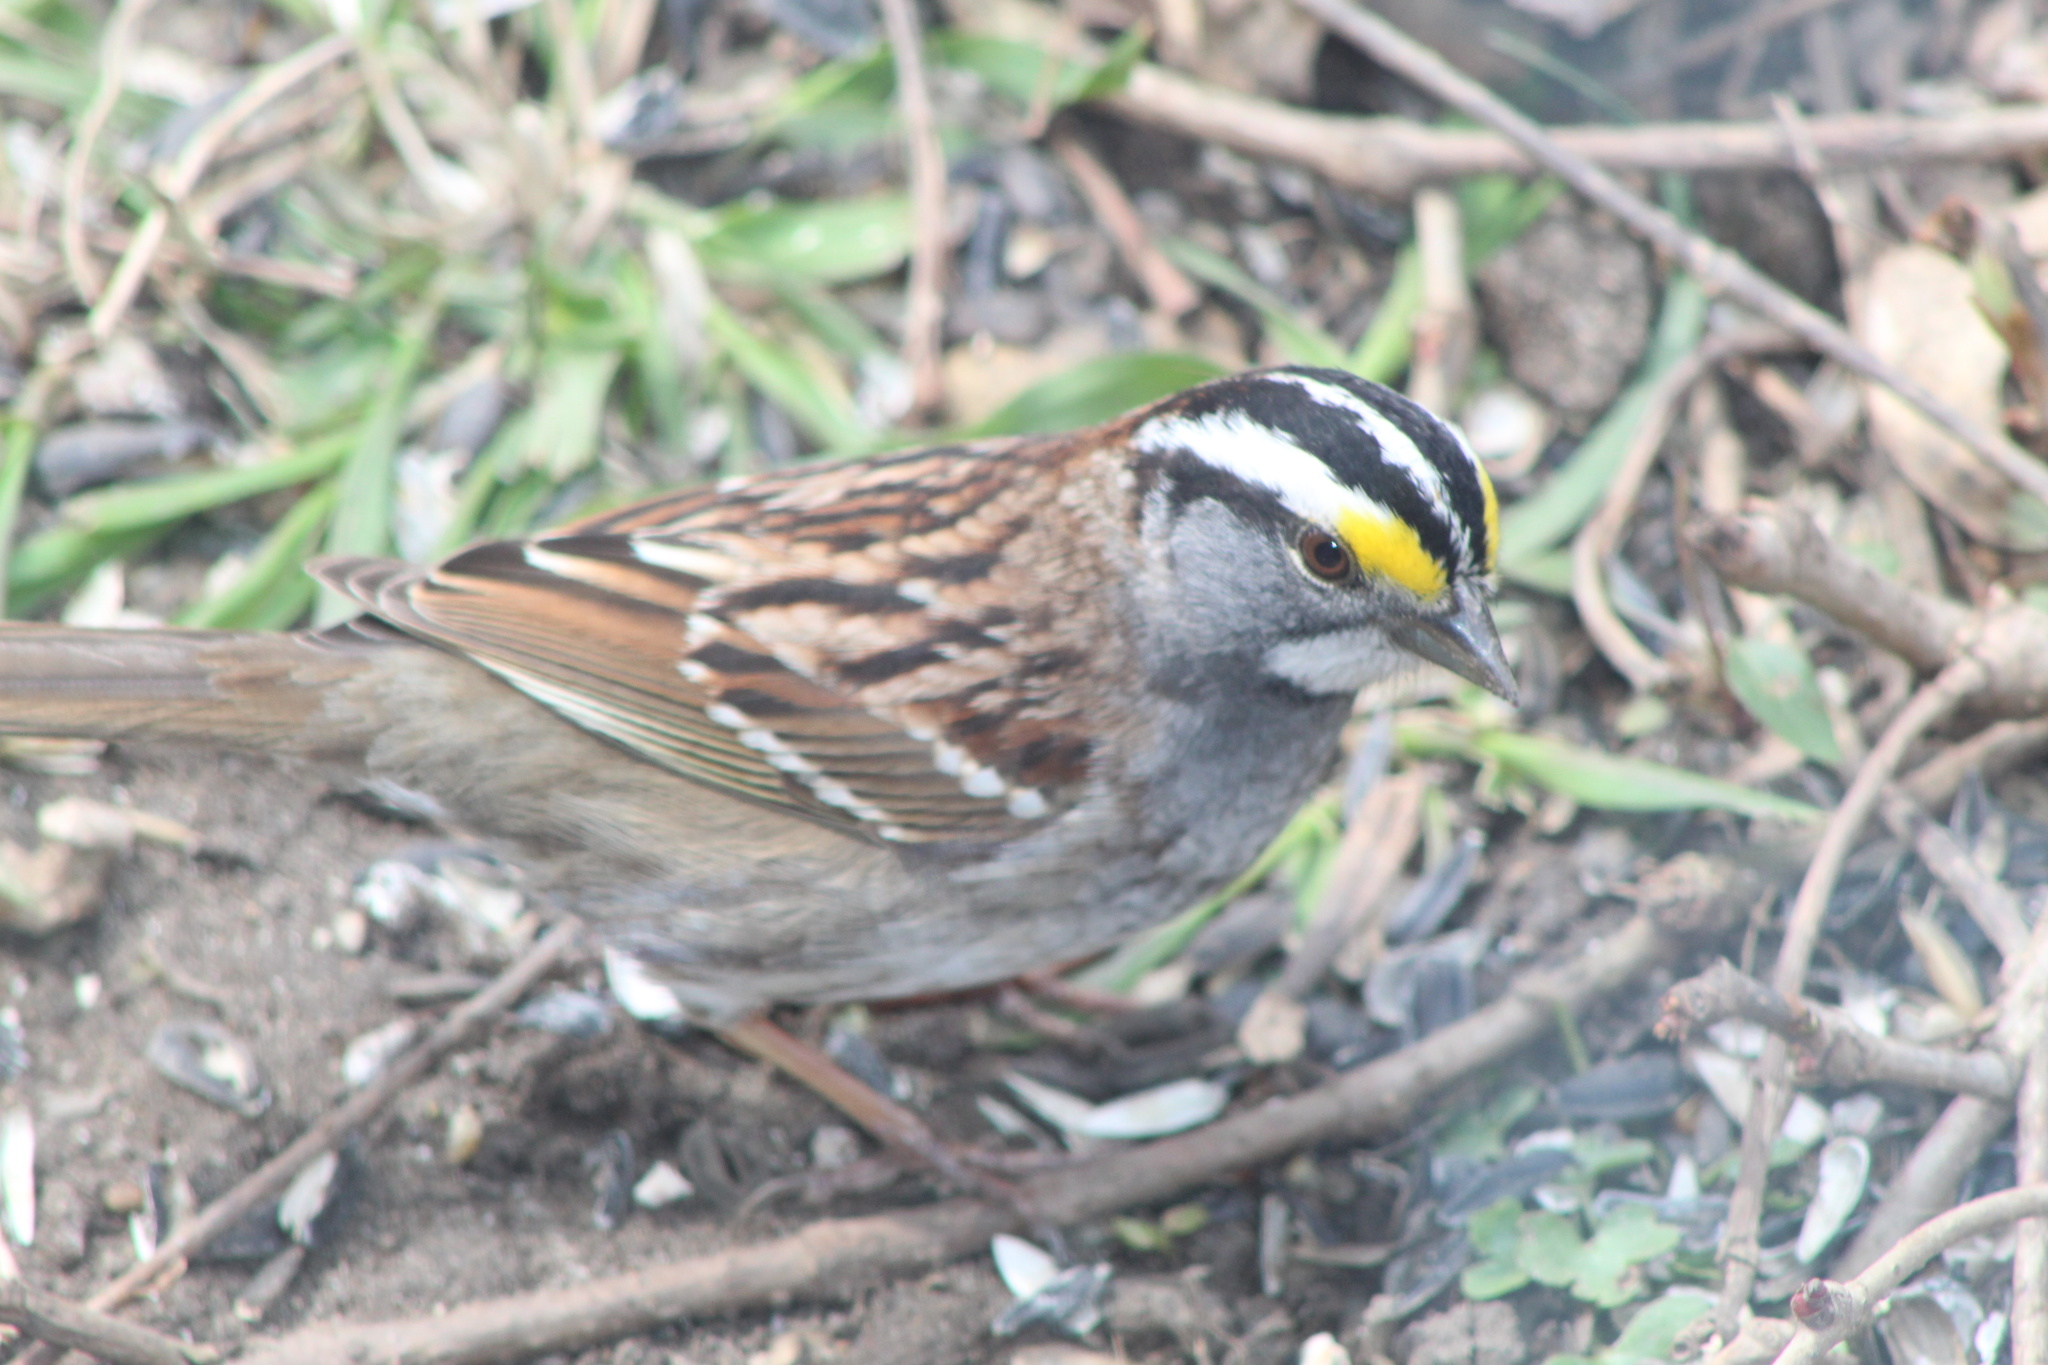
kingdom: Animalia
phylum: Chordata
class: Aves
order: Passeriformes
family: Passerellidae
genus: Zonotrichia
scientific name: Zonotrichia albicollis
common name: White-throated sparrow
